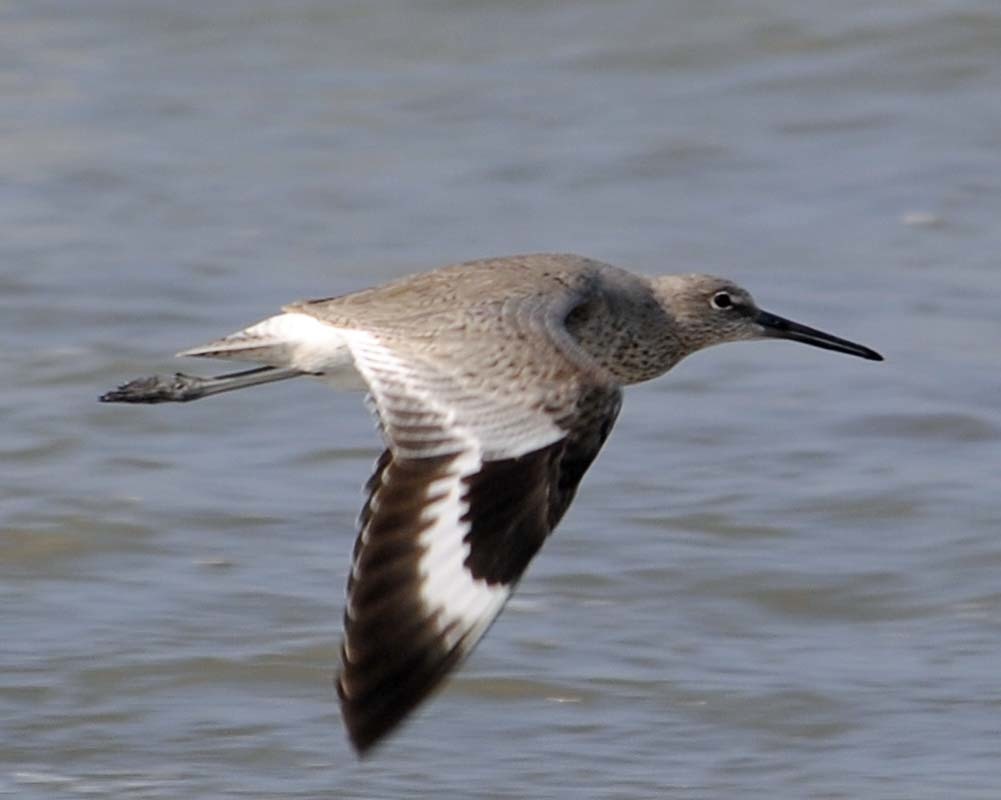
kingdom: Animalia
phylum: Chordata
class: Aves
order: Charadriiformes
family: Scolopacidae
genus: Tringa
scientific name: Tringa semipalmata
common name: Willet
